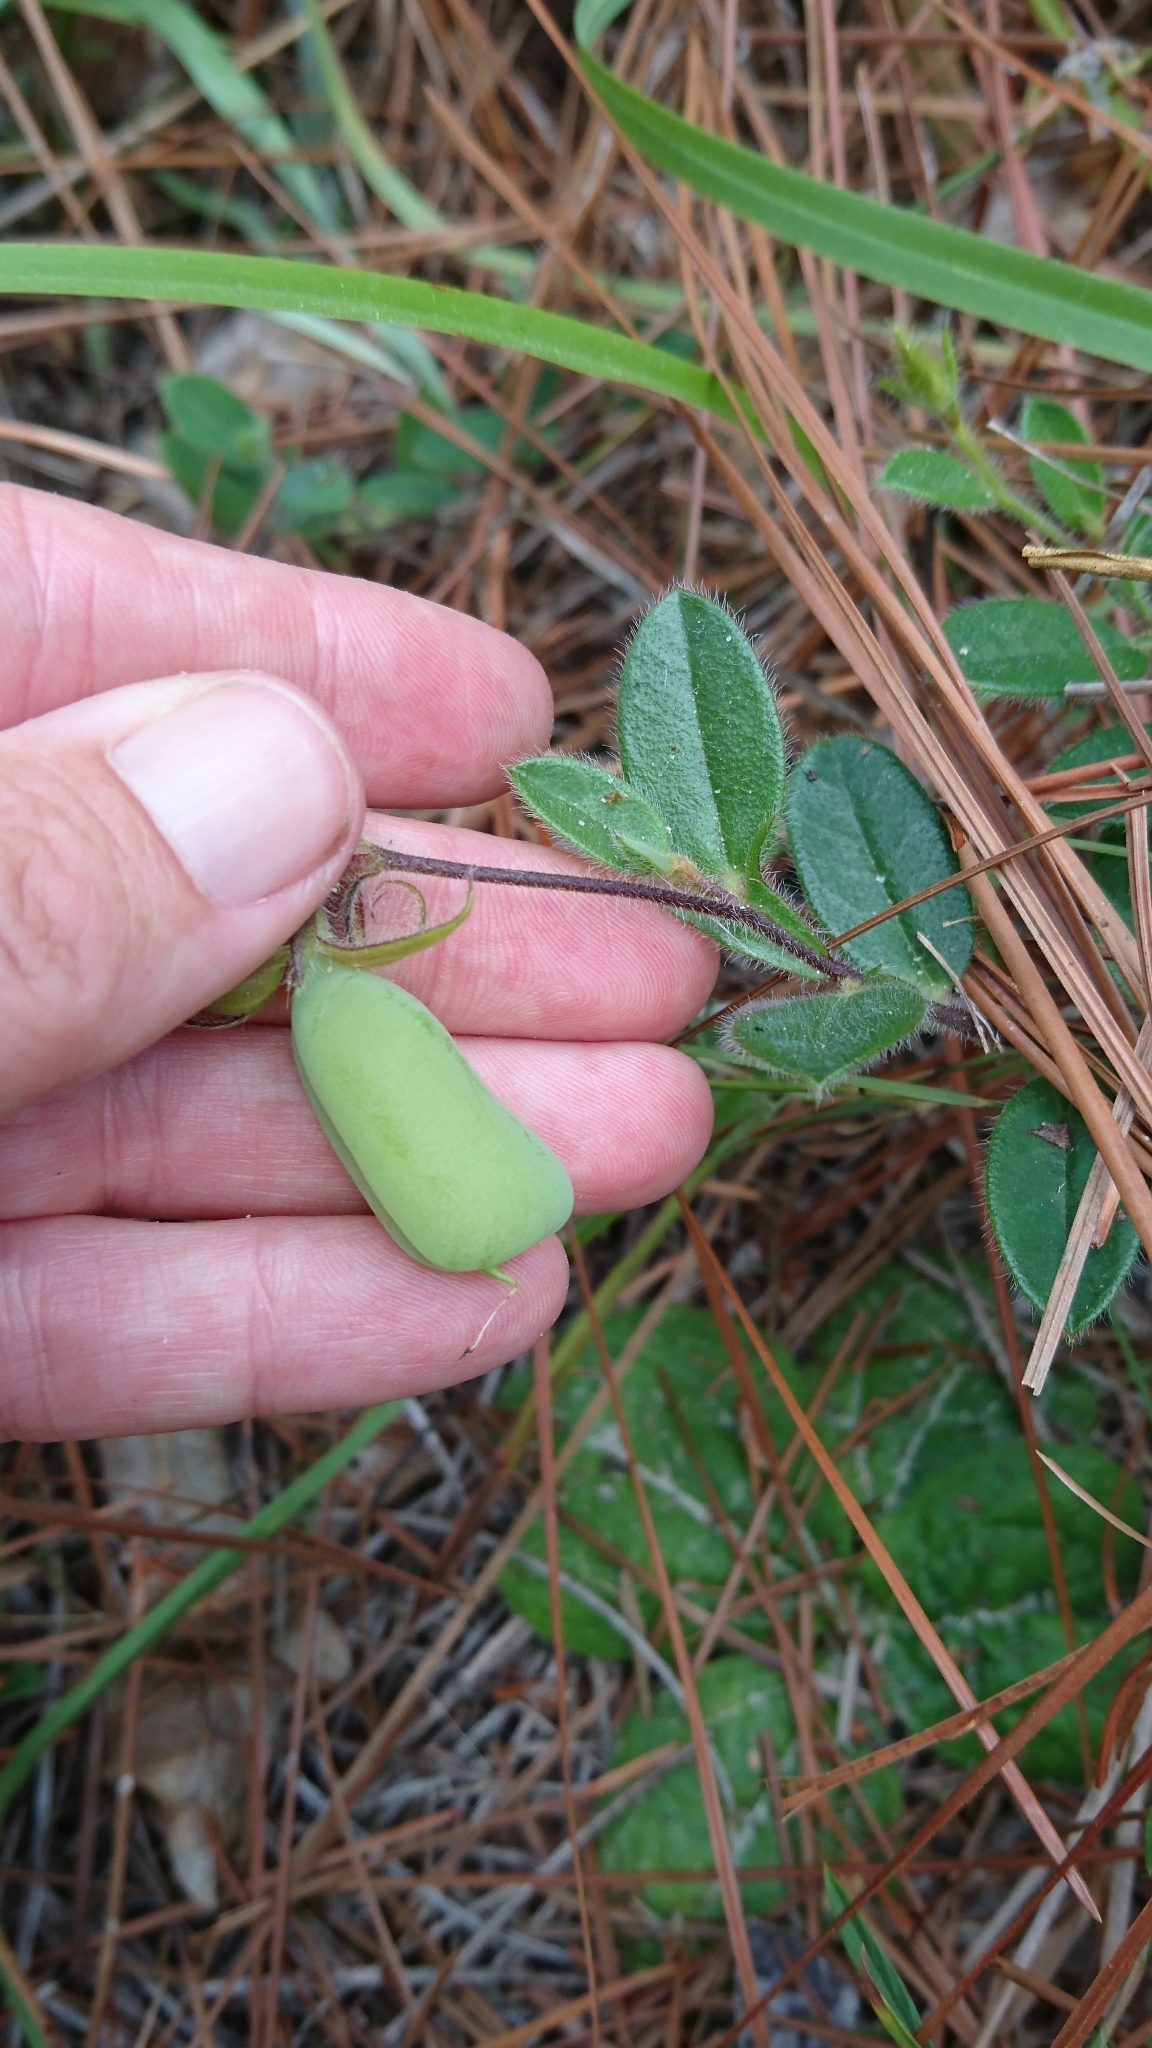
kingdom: Plantae
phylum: Tracheophyta
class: Magnoliopsida
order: Fabales
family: Fabaceae
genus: Crotalaria
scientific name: Crotalaria rotundifolia
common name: Prostrate rattlebox
